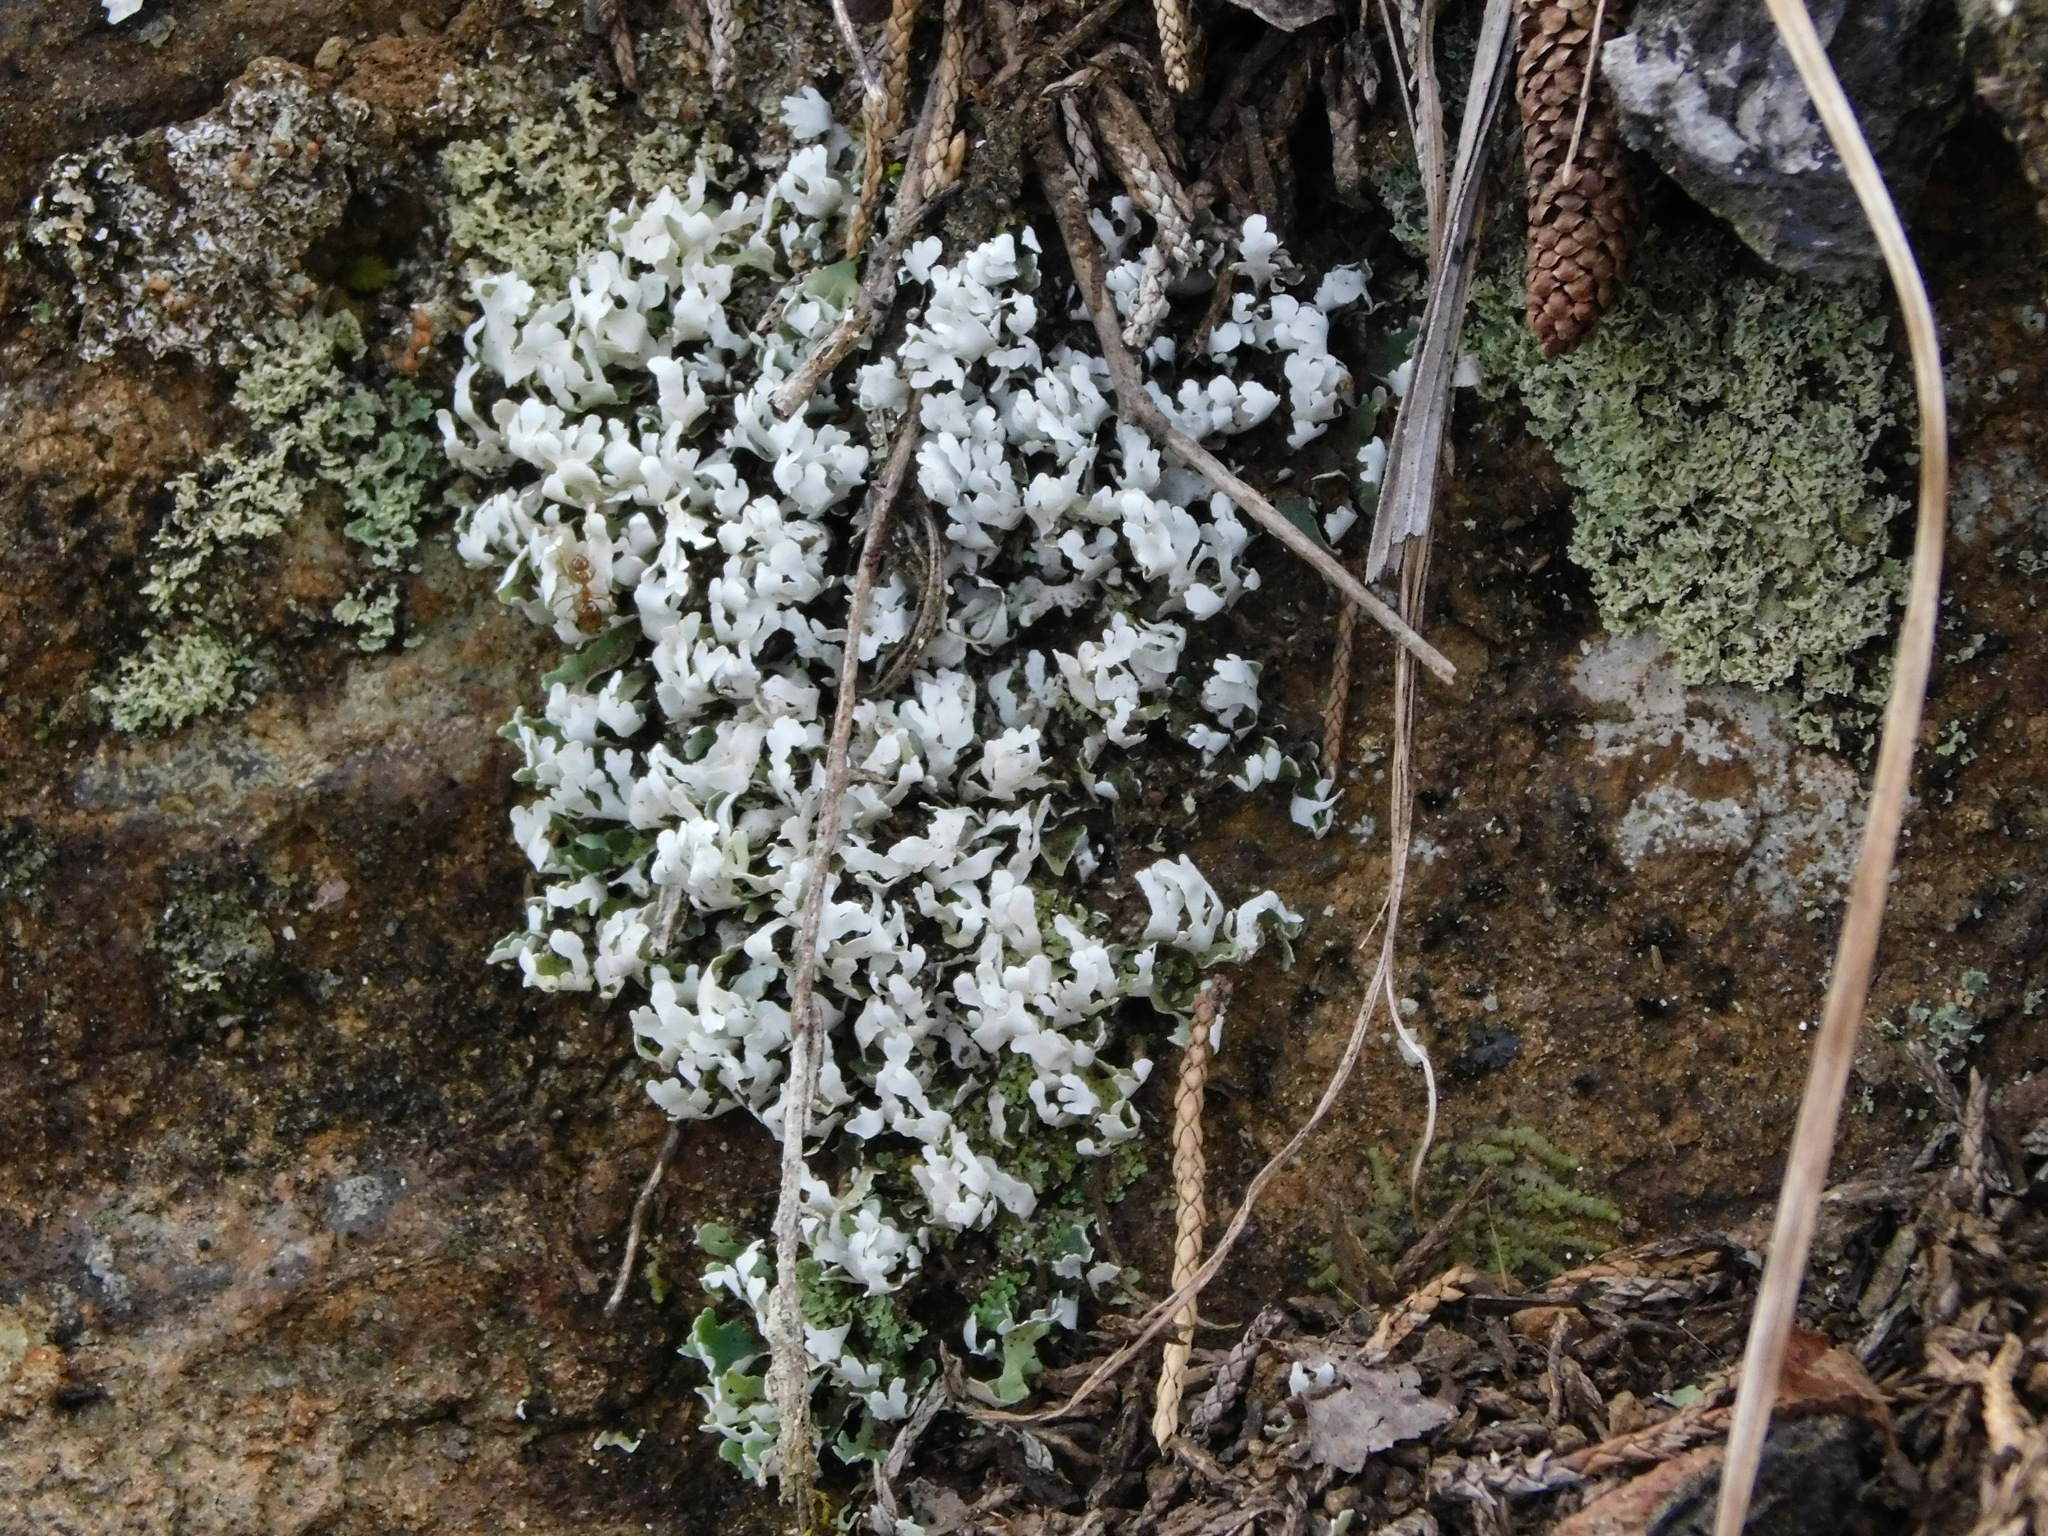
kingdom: Fungi
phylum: Ascomycota
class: Lecanoromycetes
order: Lecanorales
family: Cladoniaceae
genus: Cladonia
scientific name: Cladonia apodocarpa
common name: Stalkless cladonia
